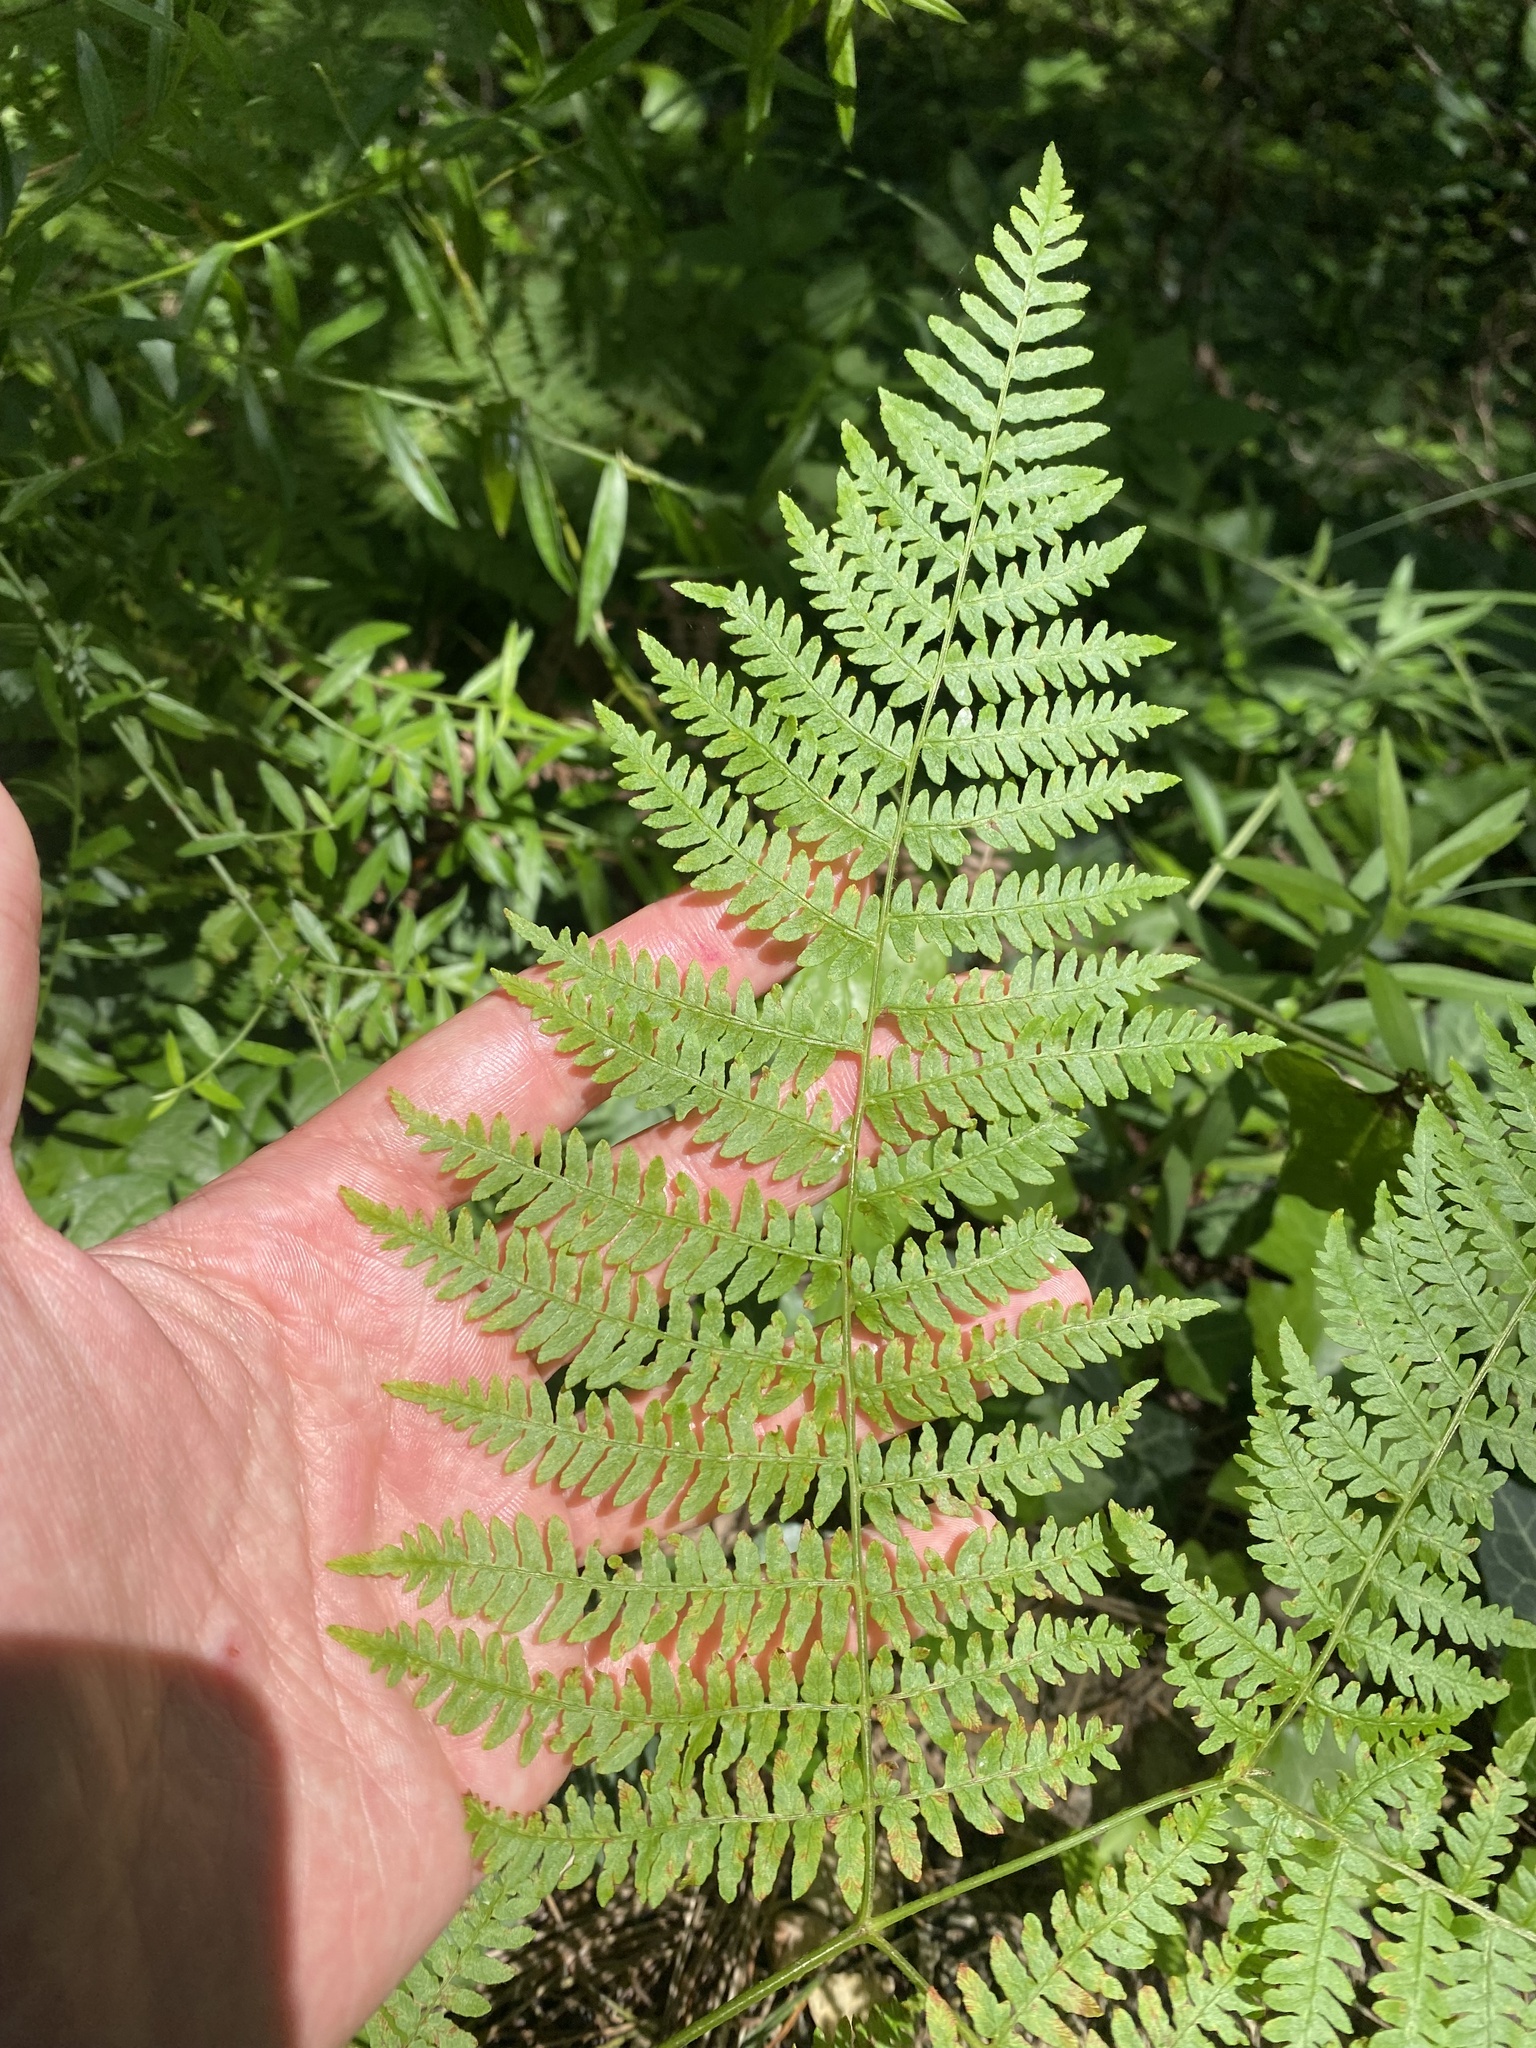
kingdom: Plantae
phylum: Tracheophyta
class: Polypodiopsida
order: Polypodiales
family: Dennstaedtiaceae
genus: Pteridium
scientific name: Pteridium tauricum
